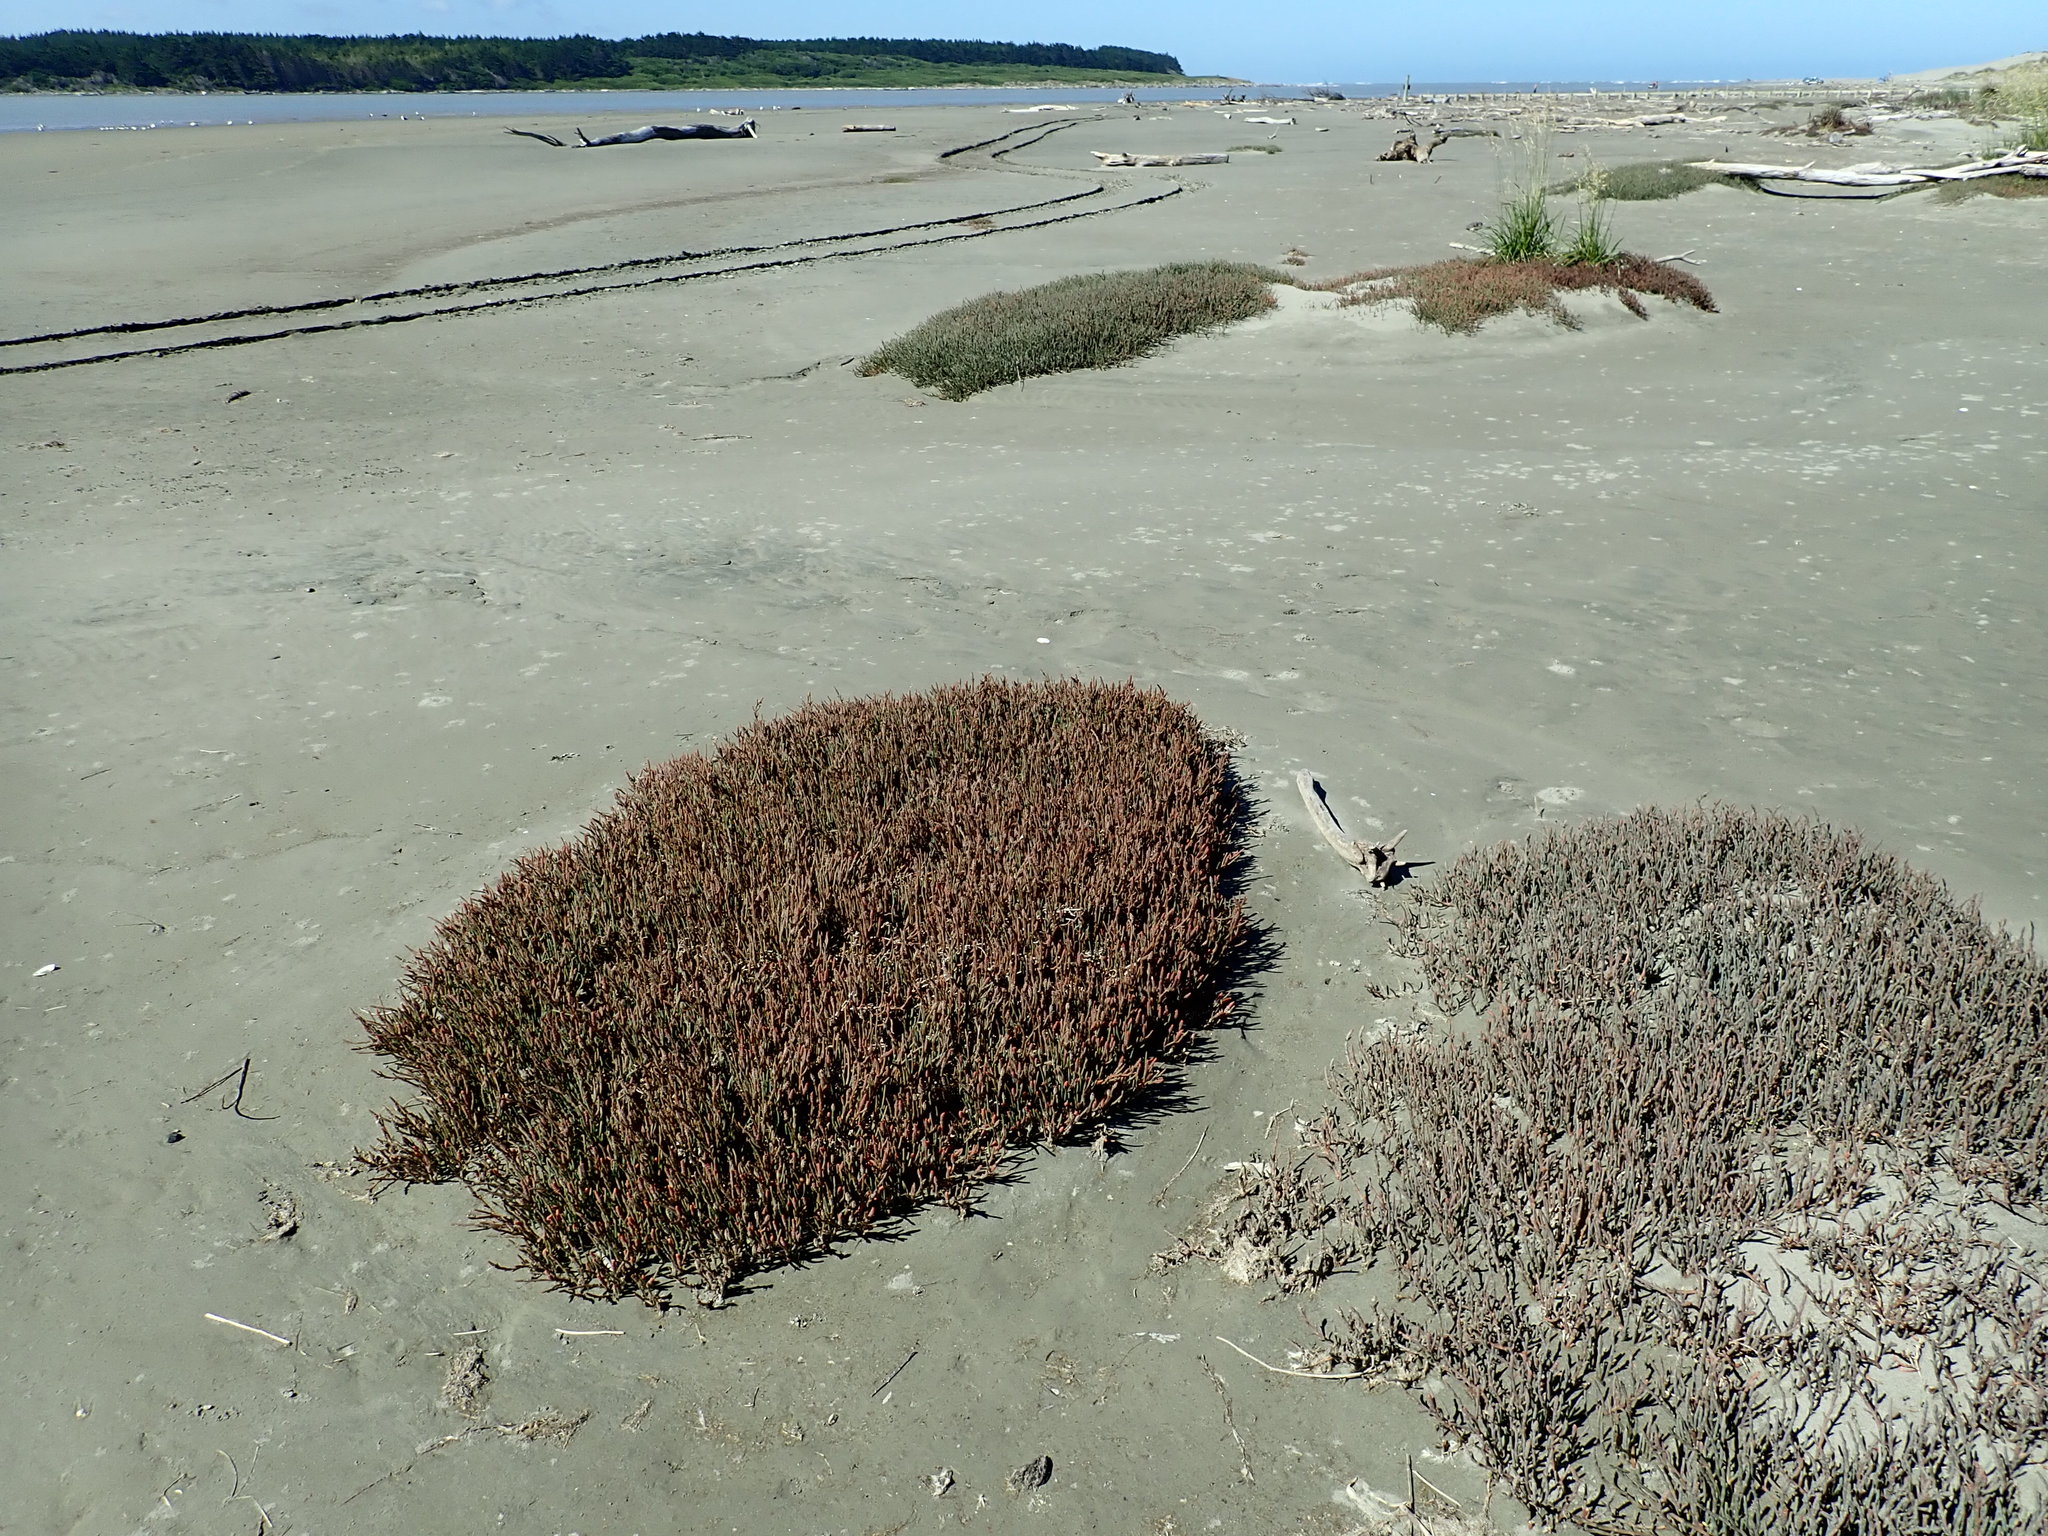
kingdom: Plantae
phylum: Tracheophyta
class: Magnoliopsida
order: Caryophyllales
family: Amaranthaceae
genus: Salicornia
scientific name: Salicornia quinqueflora
